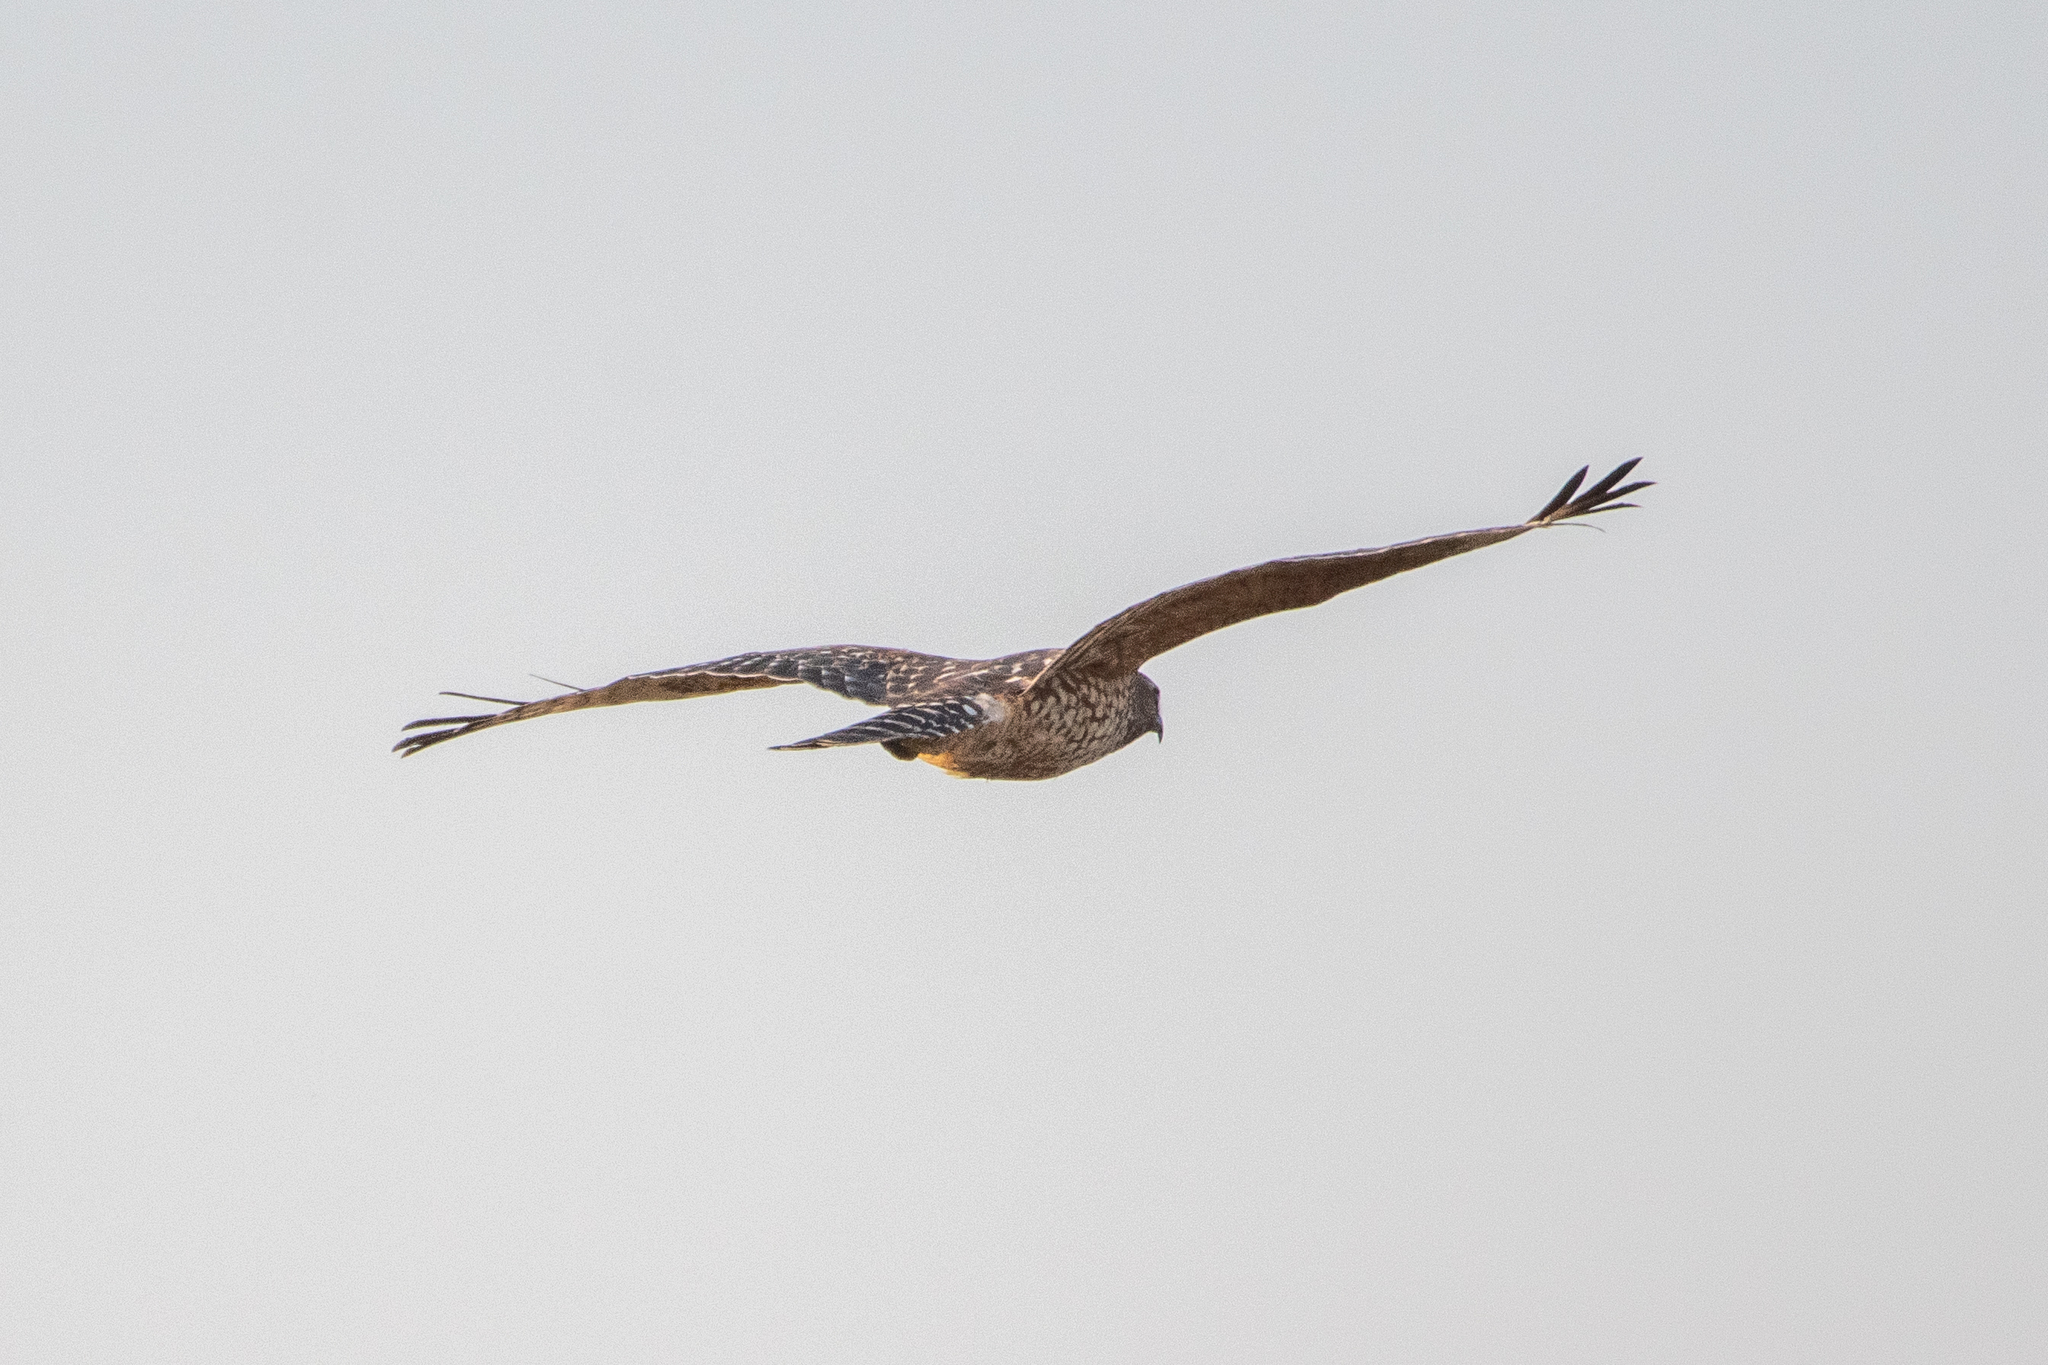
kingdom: Animalia
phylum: Chordata
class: Aves
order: Accipitriformes
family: Accipitridae
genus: Buteo
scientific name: Buteo lineatus
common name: Red-shouldered hawk
